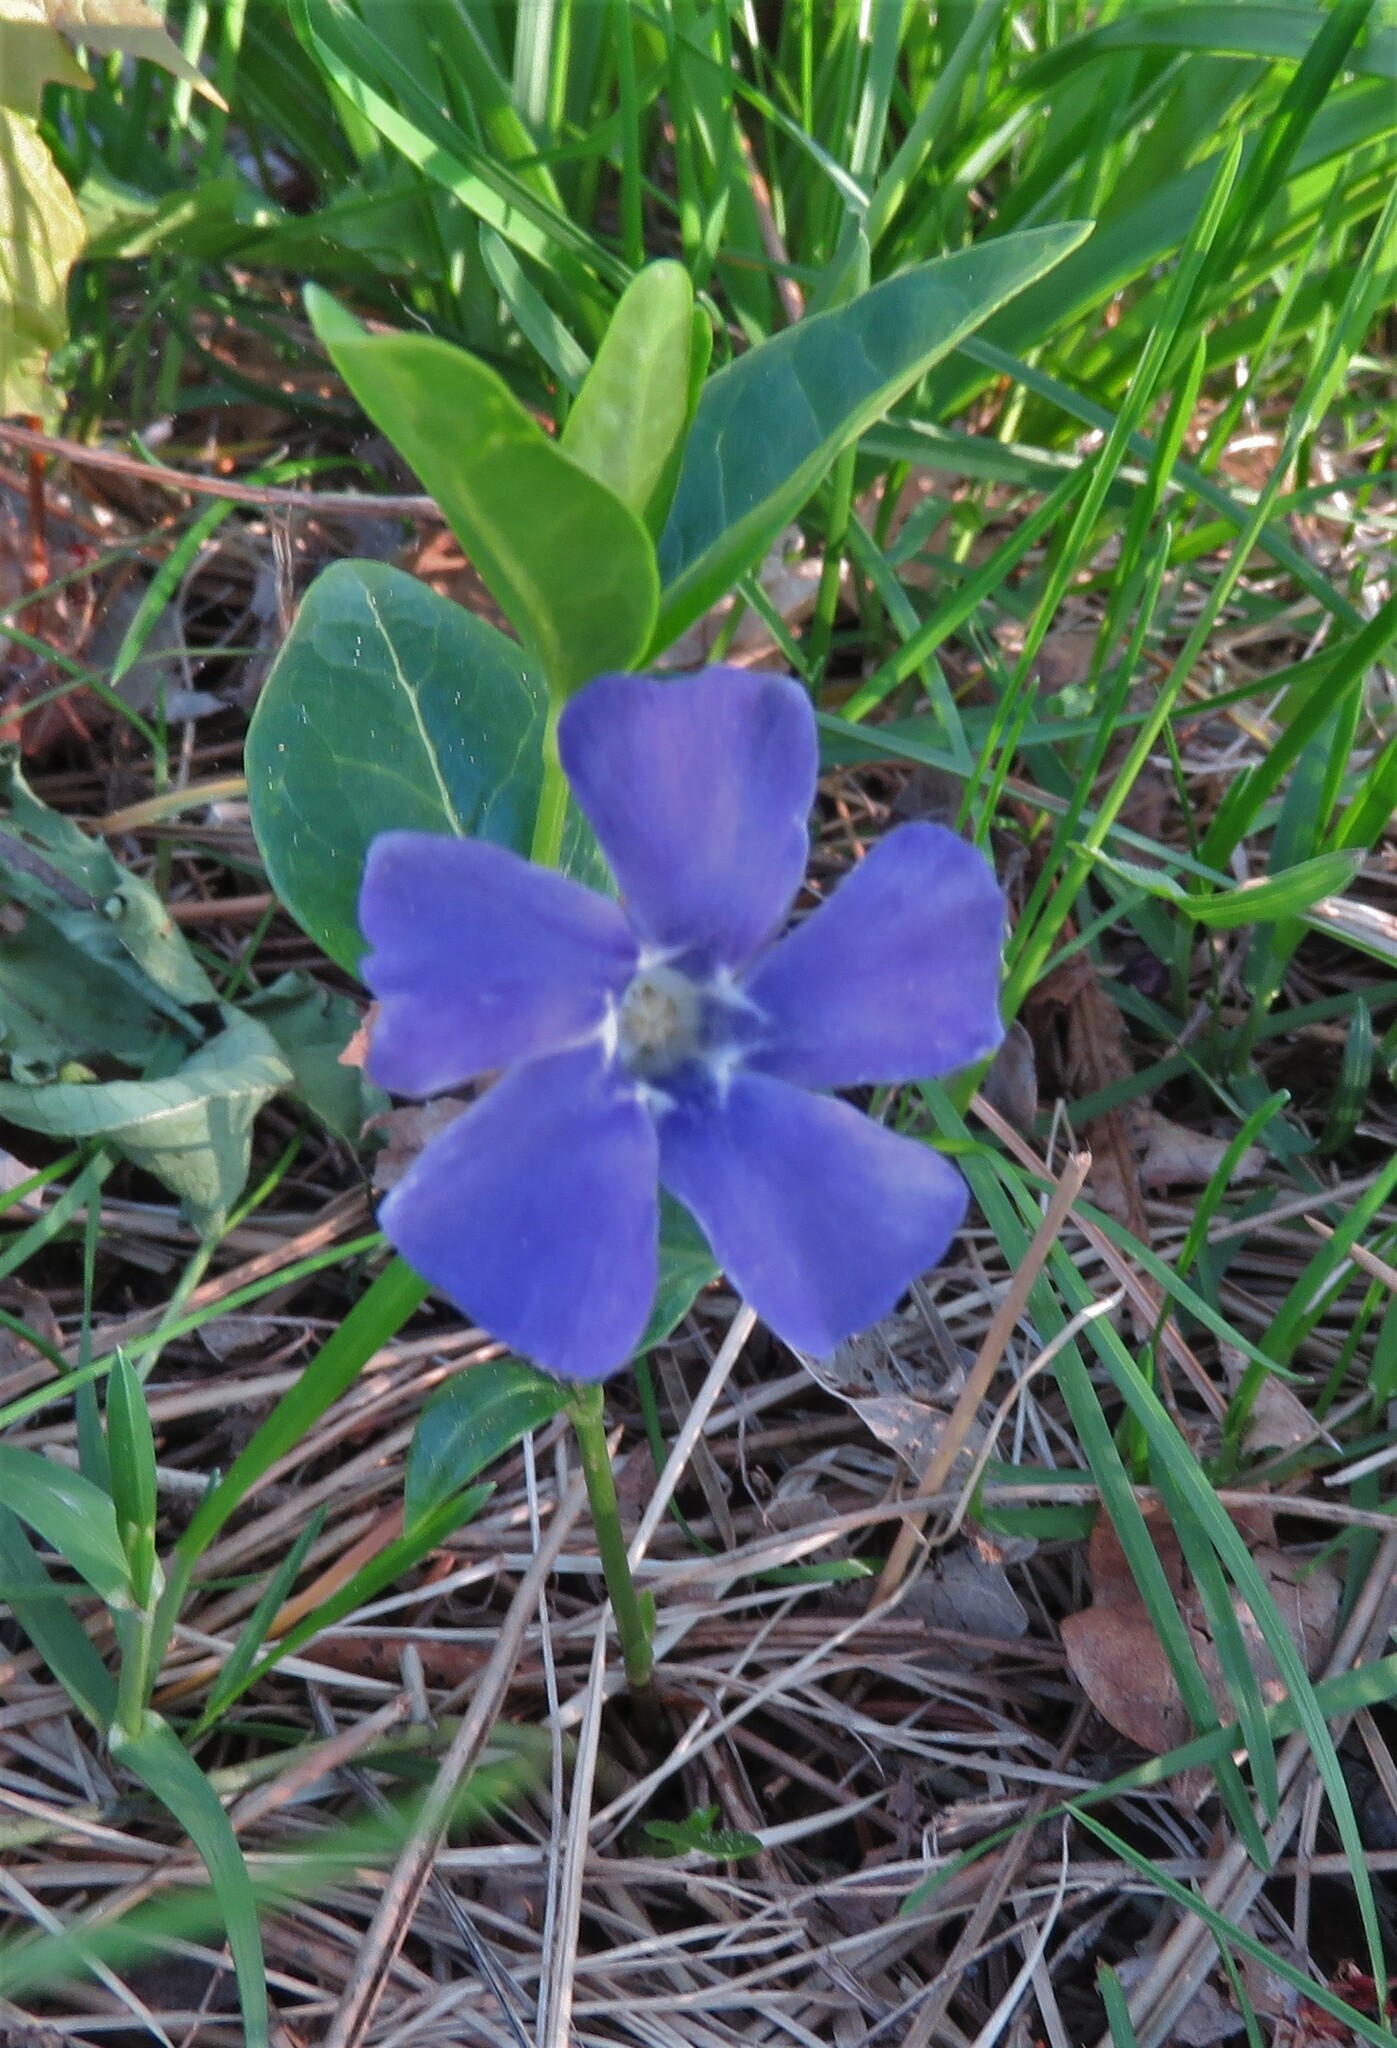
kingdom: Plantae
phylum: Tracheophyta
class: Magnoliopsida
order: Gentianales
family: Apocynaceae
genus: Vinca
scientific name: Vinca minor
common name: Lesser periwinkle
